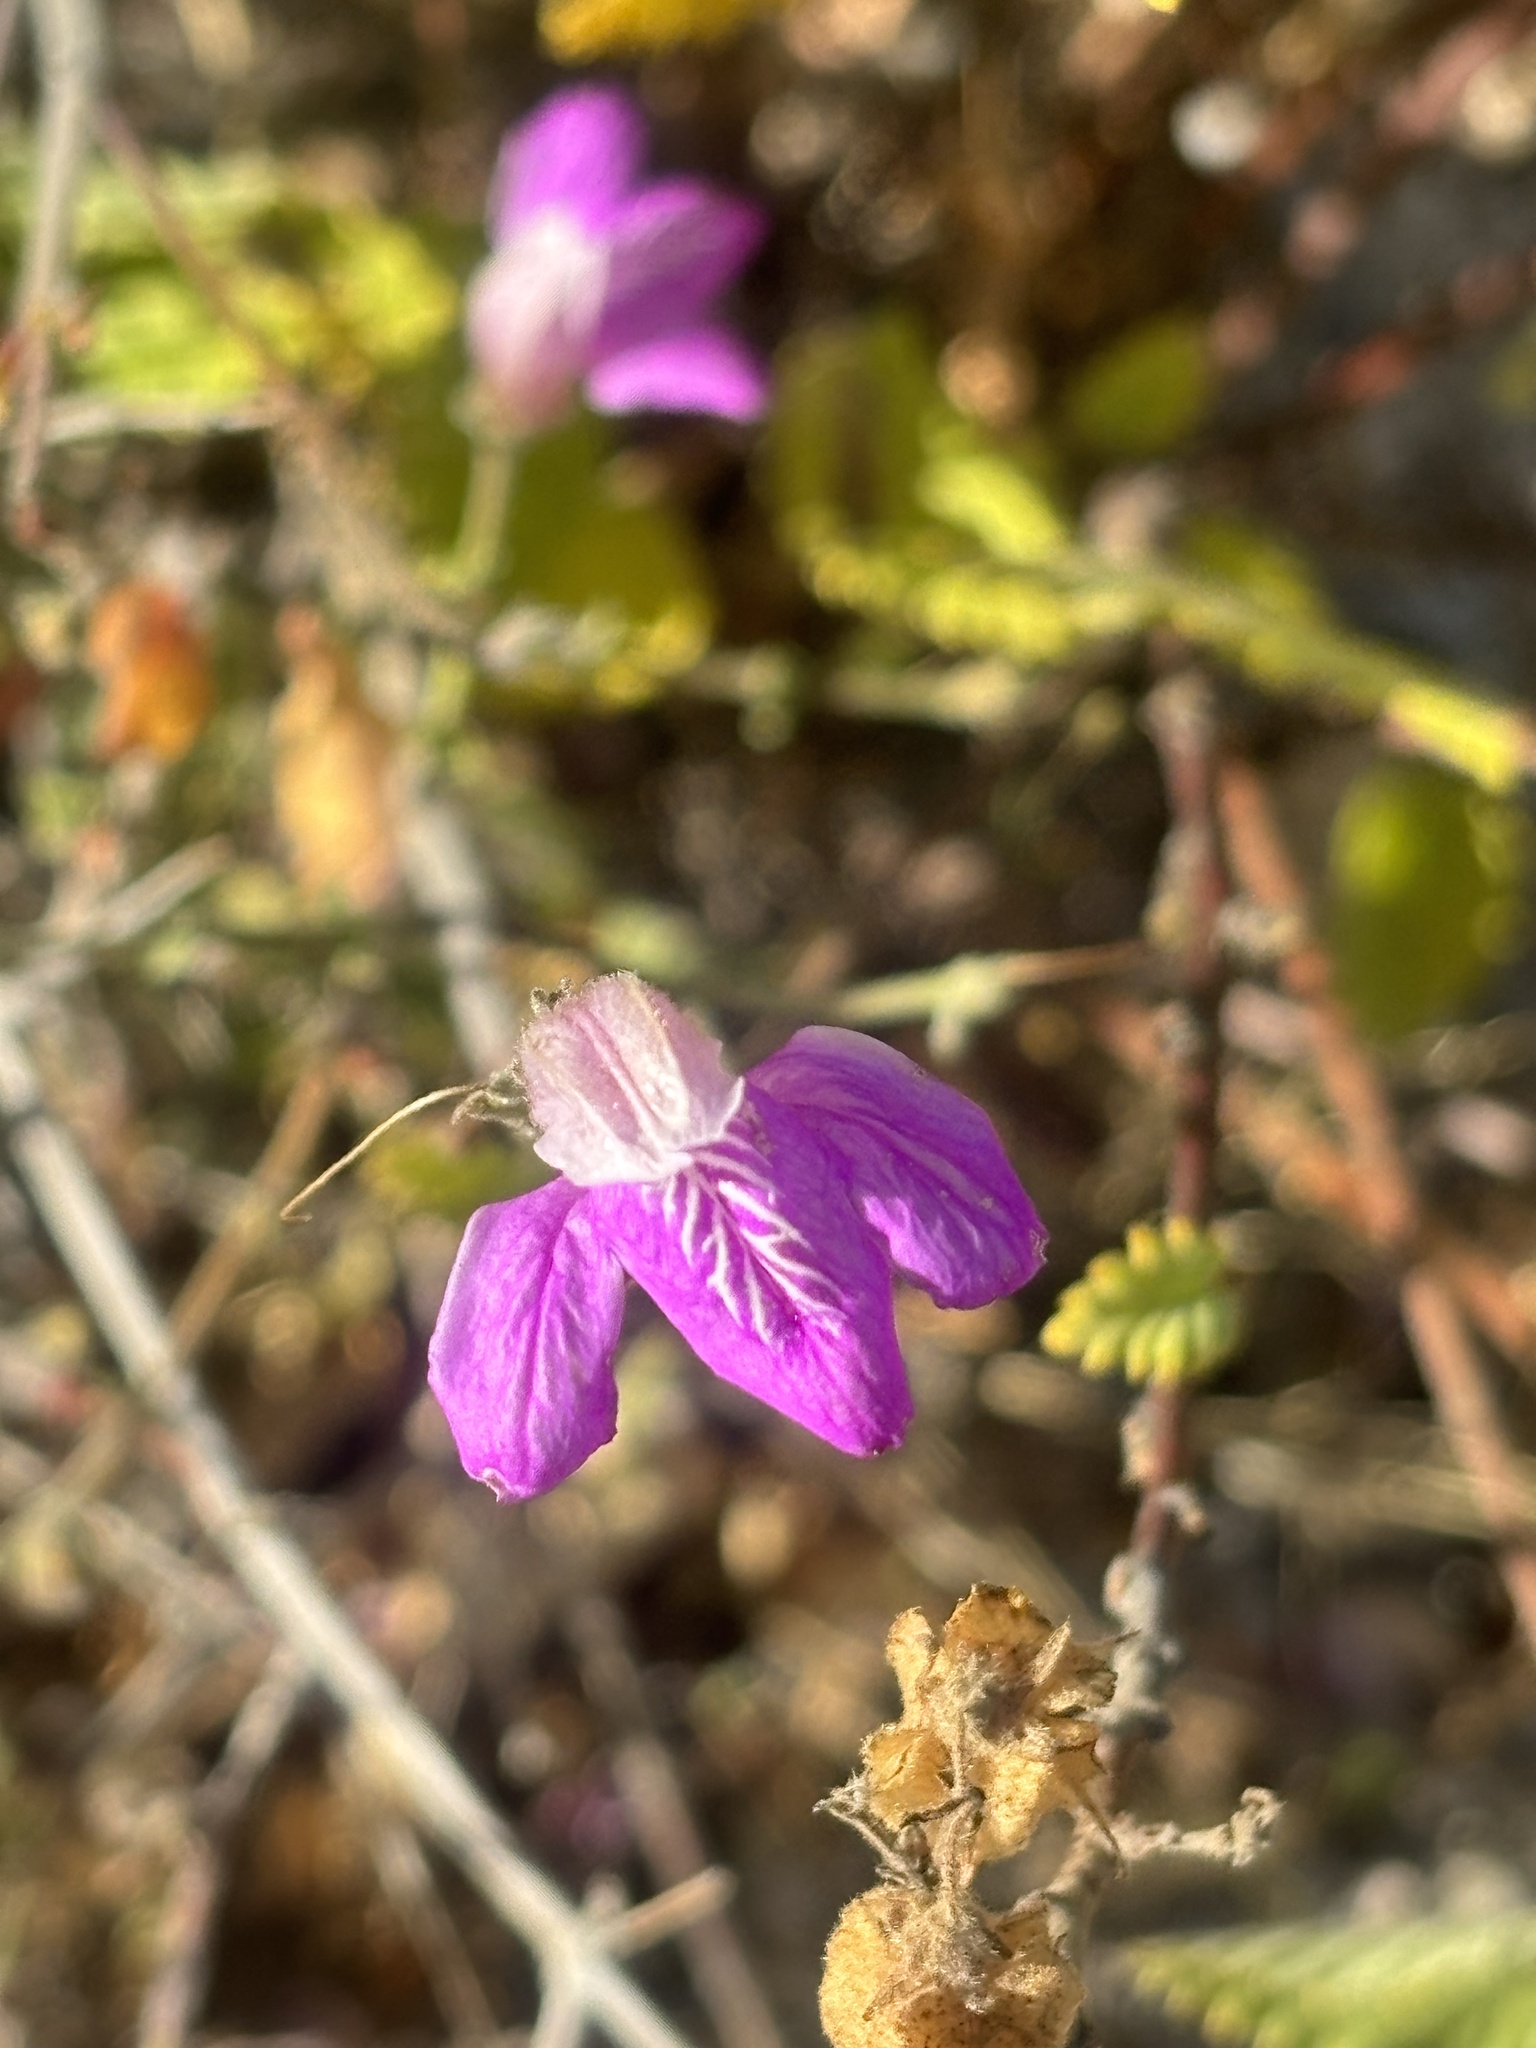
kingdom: Plantae
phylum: Tracheophyta
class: Magnoliopsida
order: Lamiales
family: Acanthaceae
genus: Justicia
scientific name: Justicia insolita
